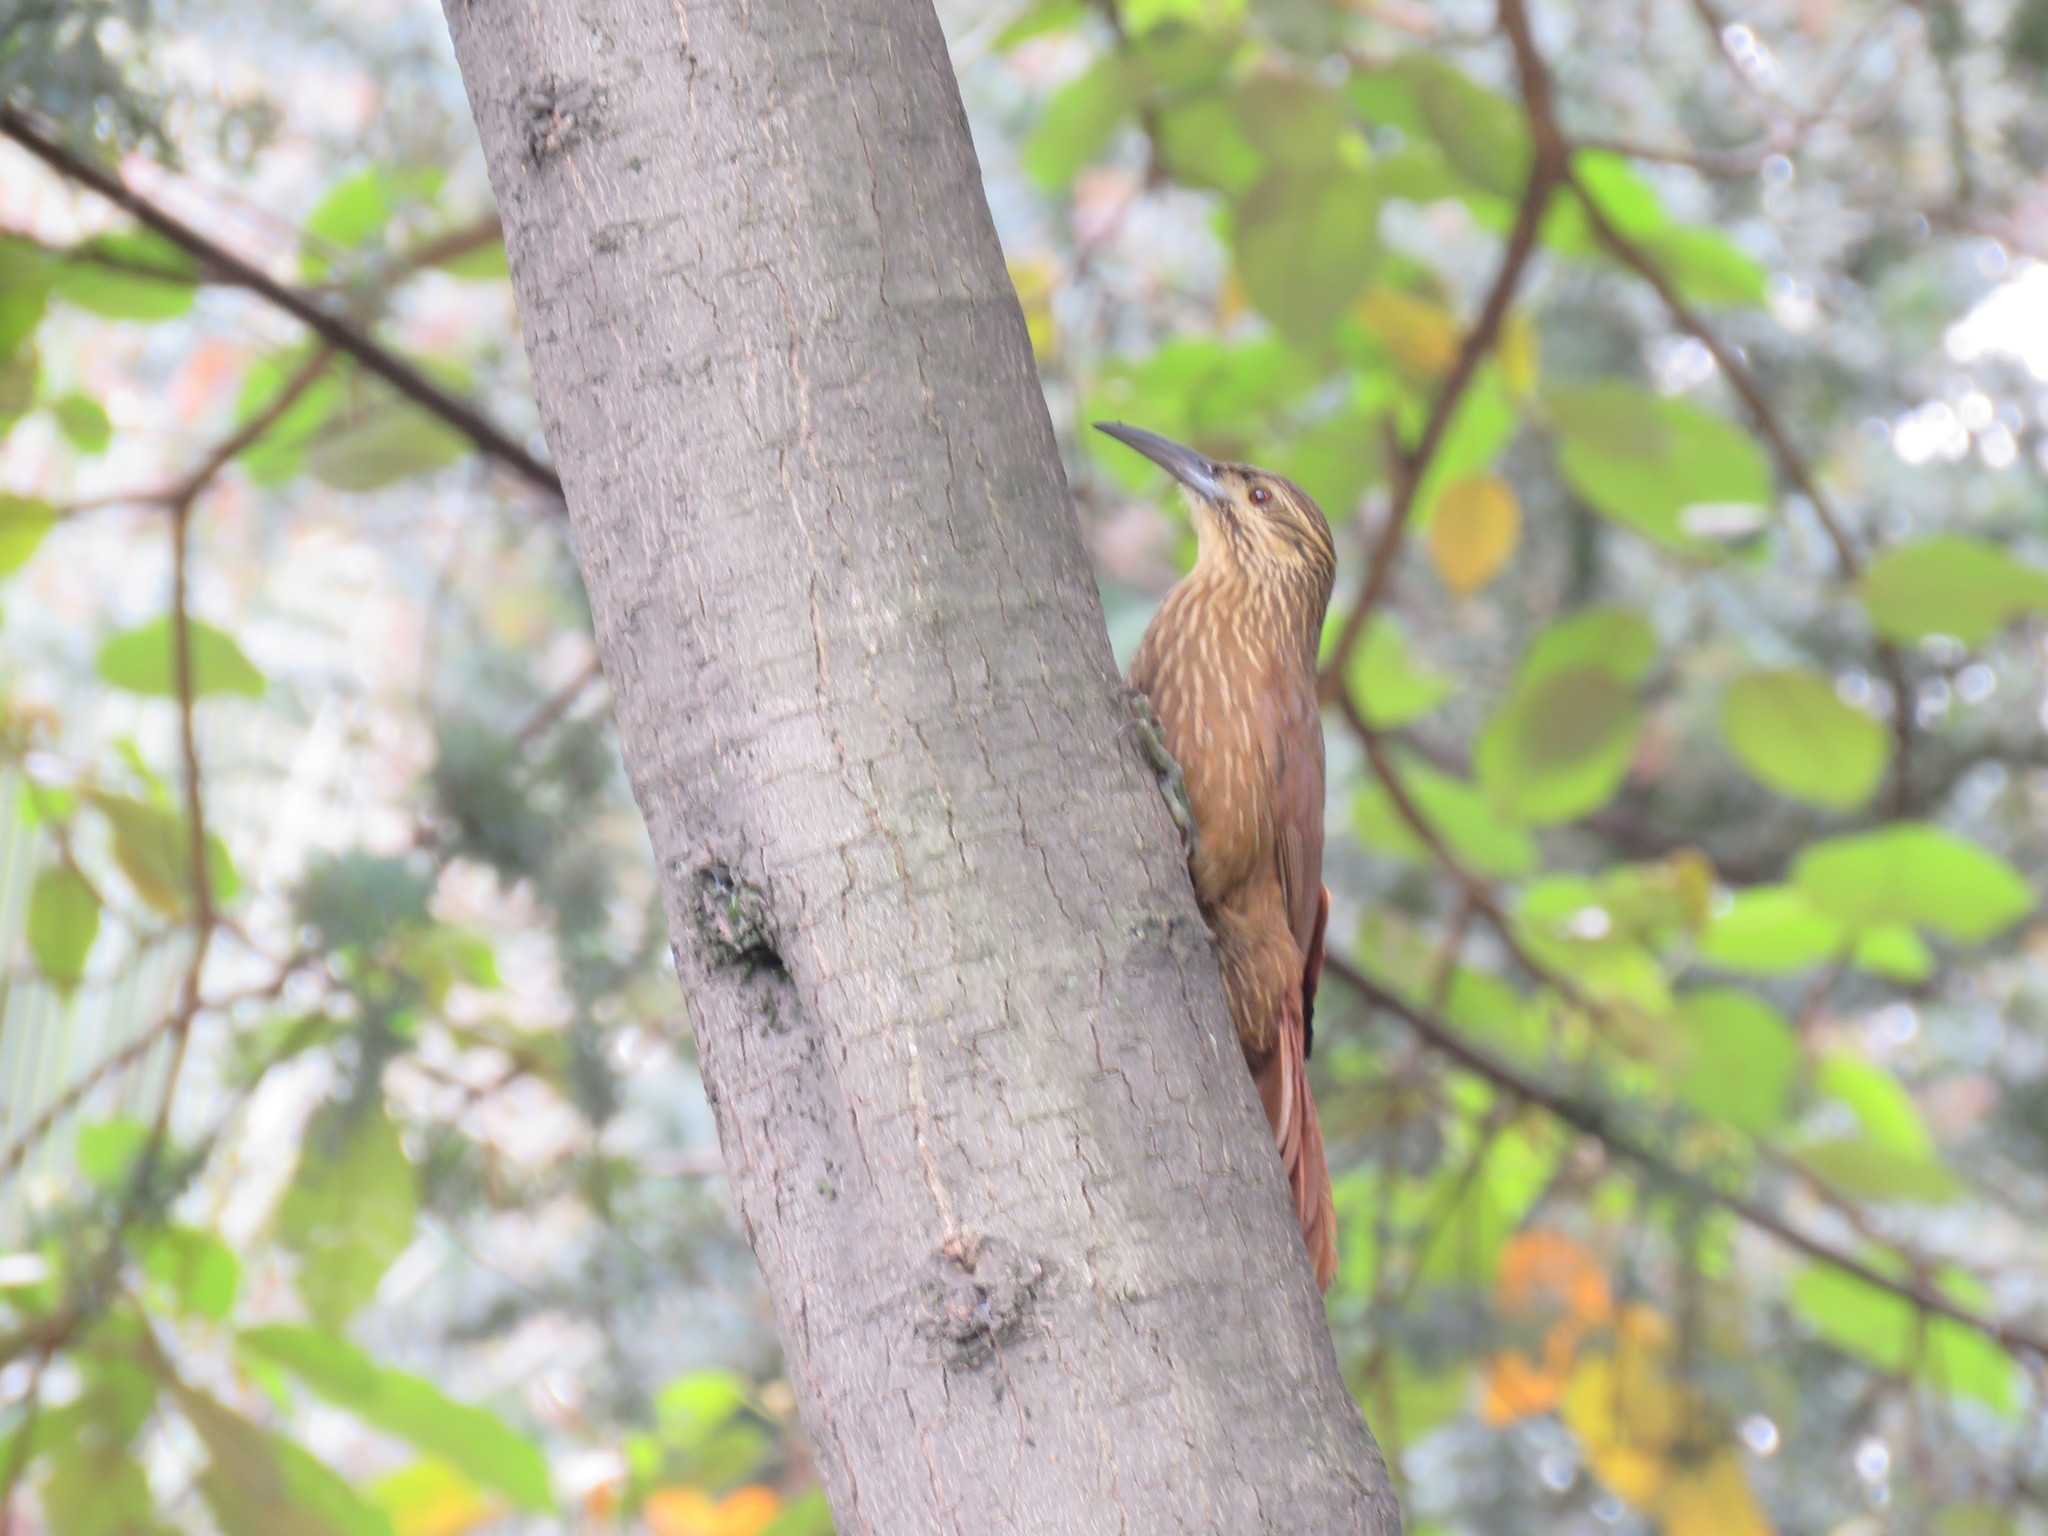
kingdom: Animalia
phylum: Chordata
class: Aves
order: Passeriformes
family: Furnariidae
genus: Xiphocolaptes
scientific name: Xiphocolaptes promeropirhynchus
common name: Strong-billed woodcreeper
